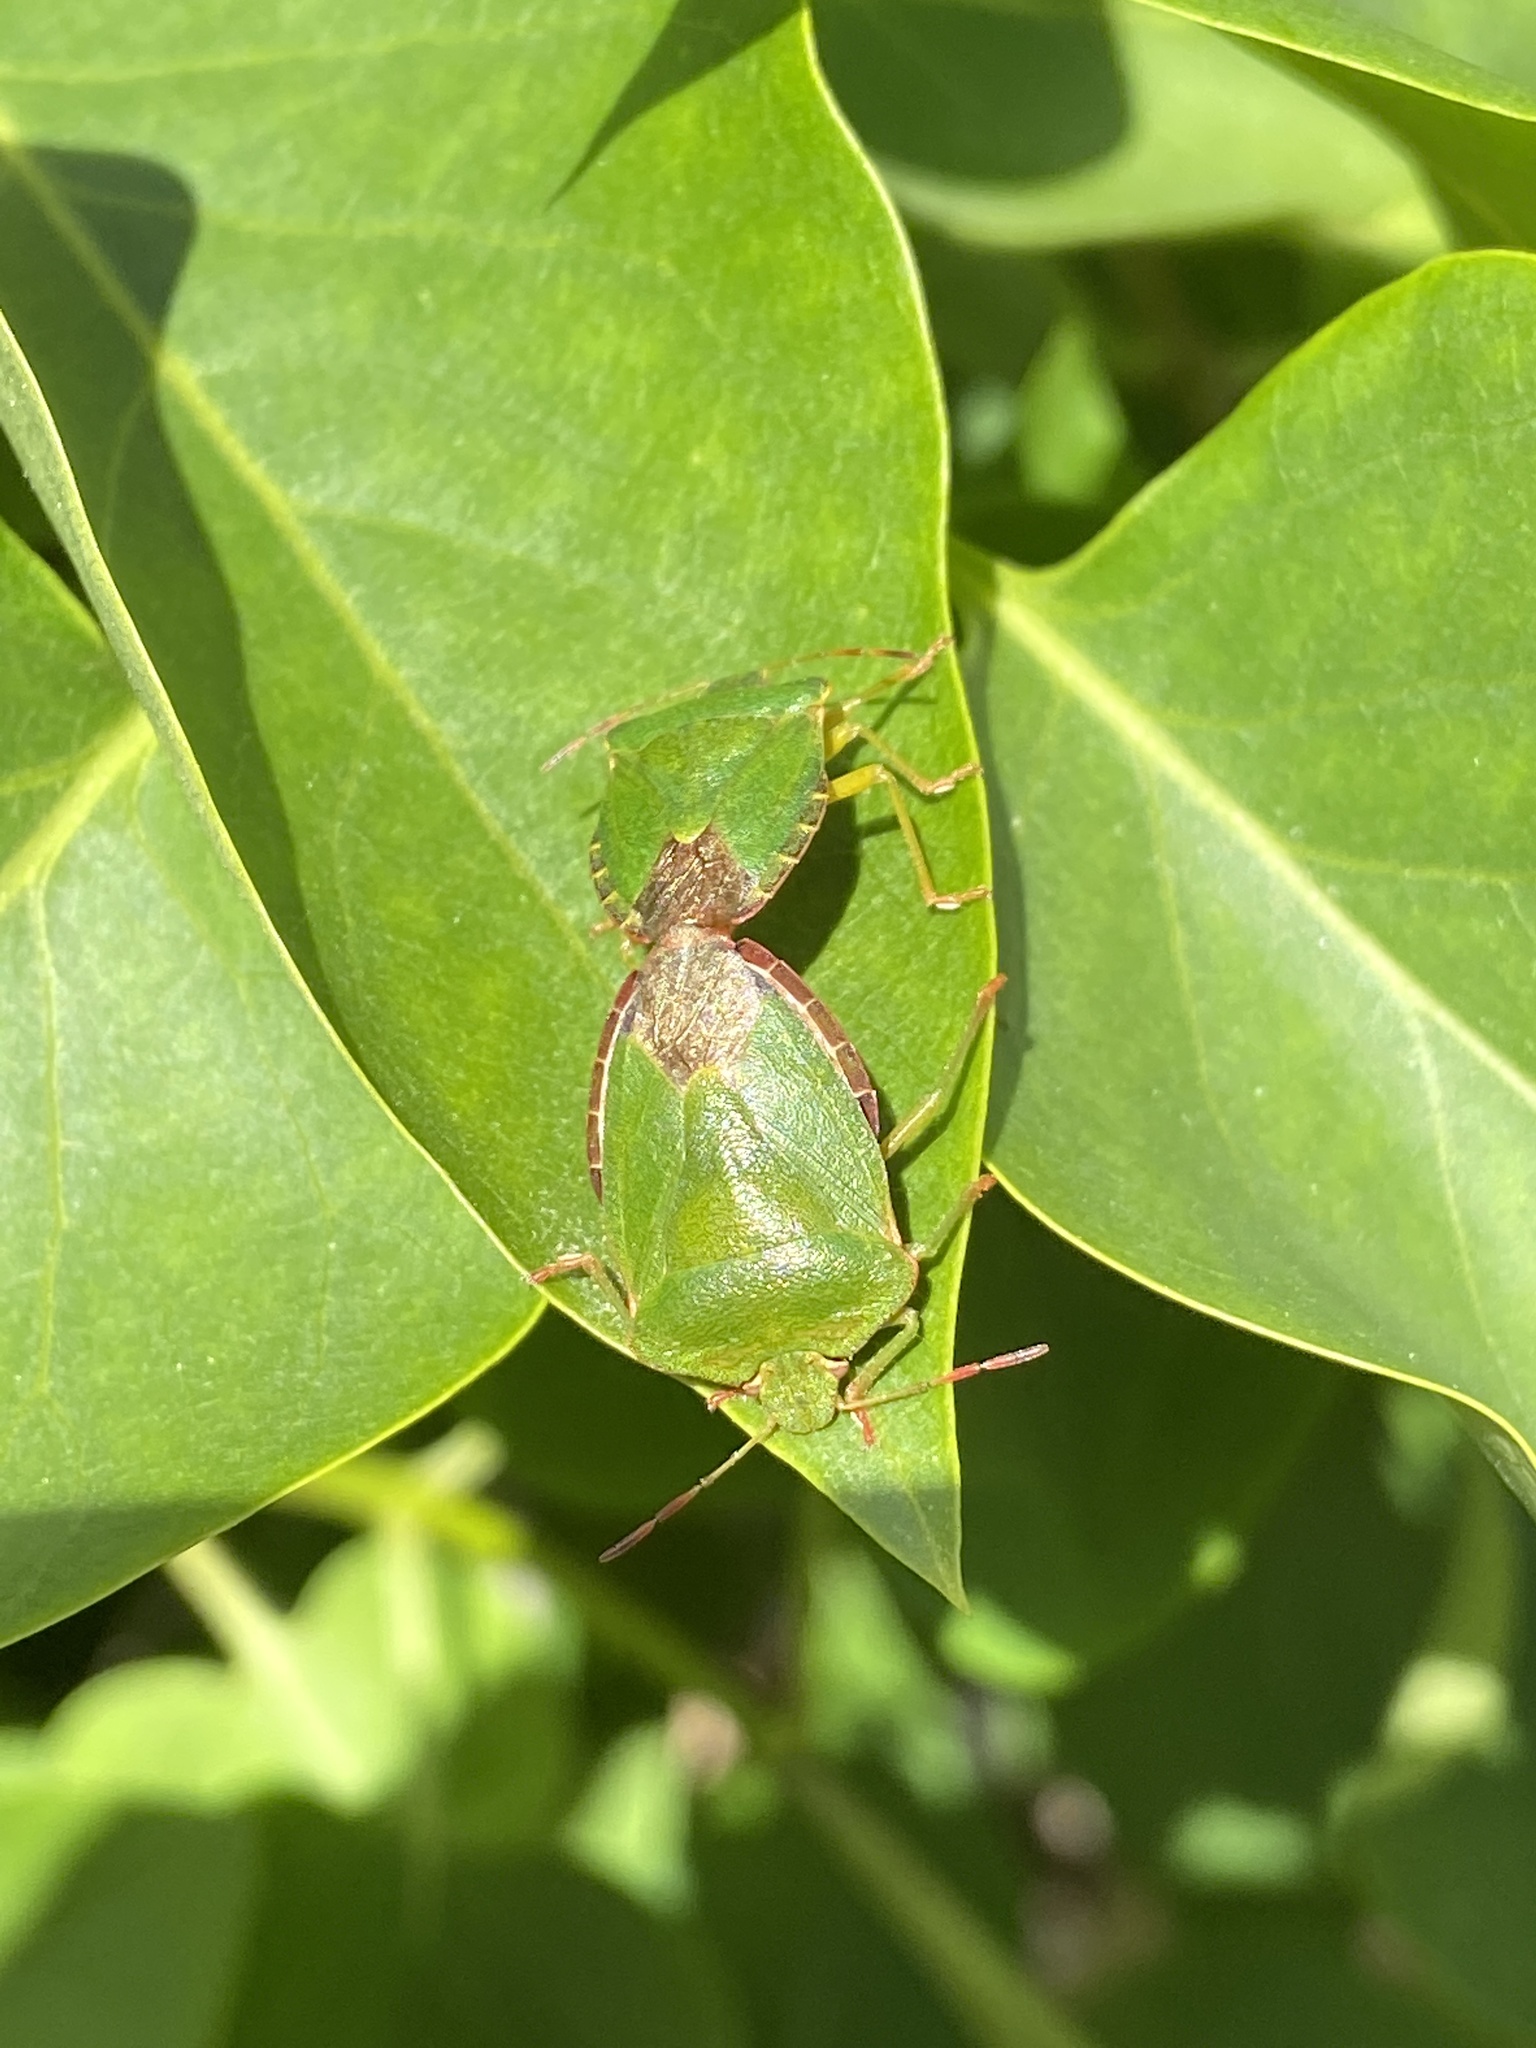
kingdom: Animalia
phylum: Arthropoda
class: Insecta
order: Hemiptera
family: Pentatomidae
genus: Palomena
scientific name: Palomena prasina
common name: Green shieldbug
